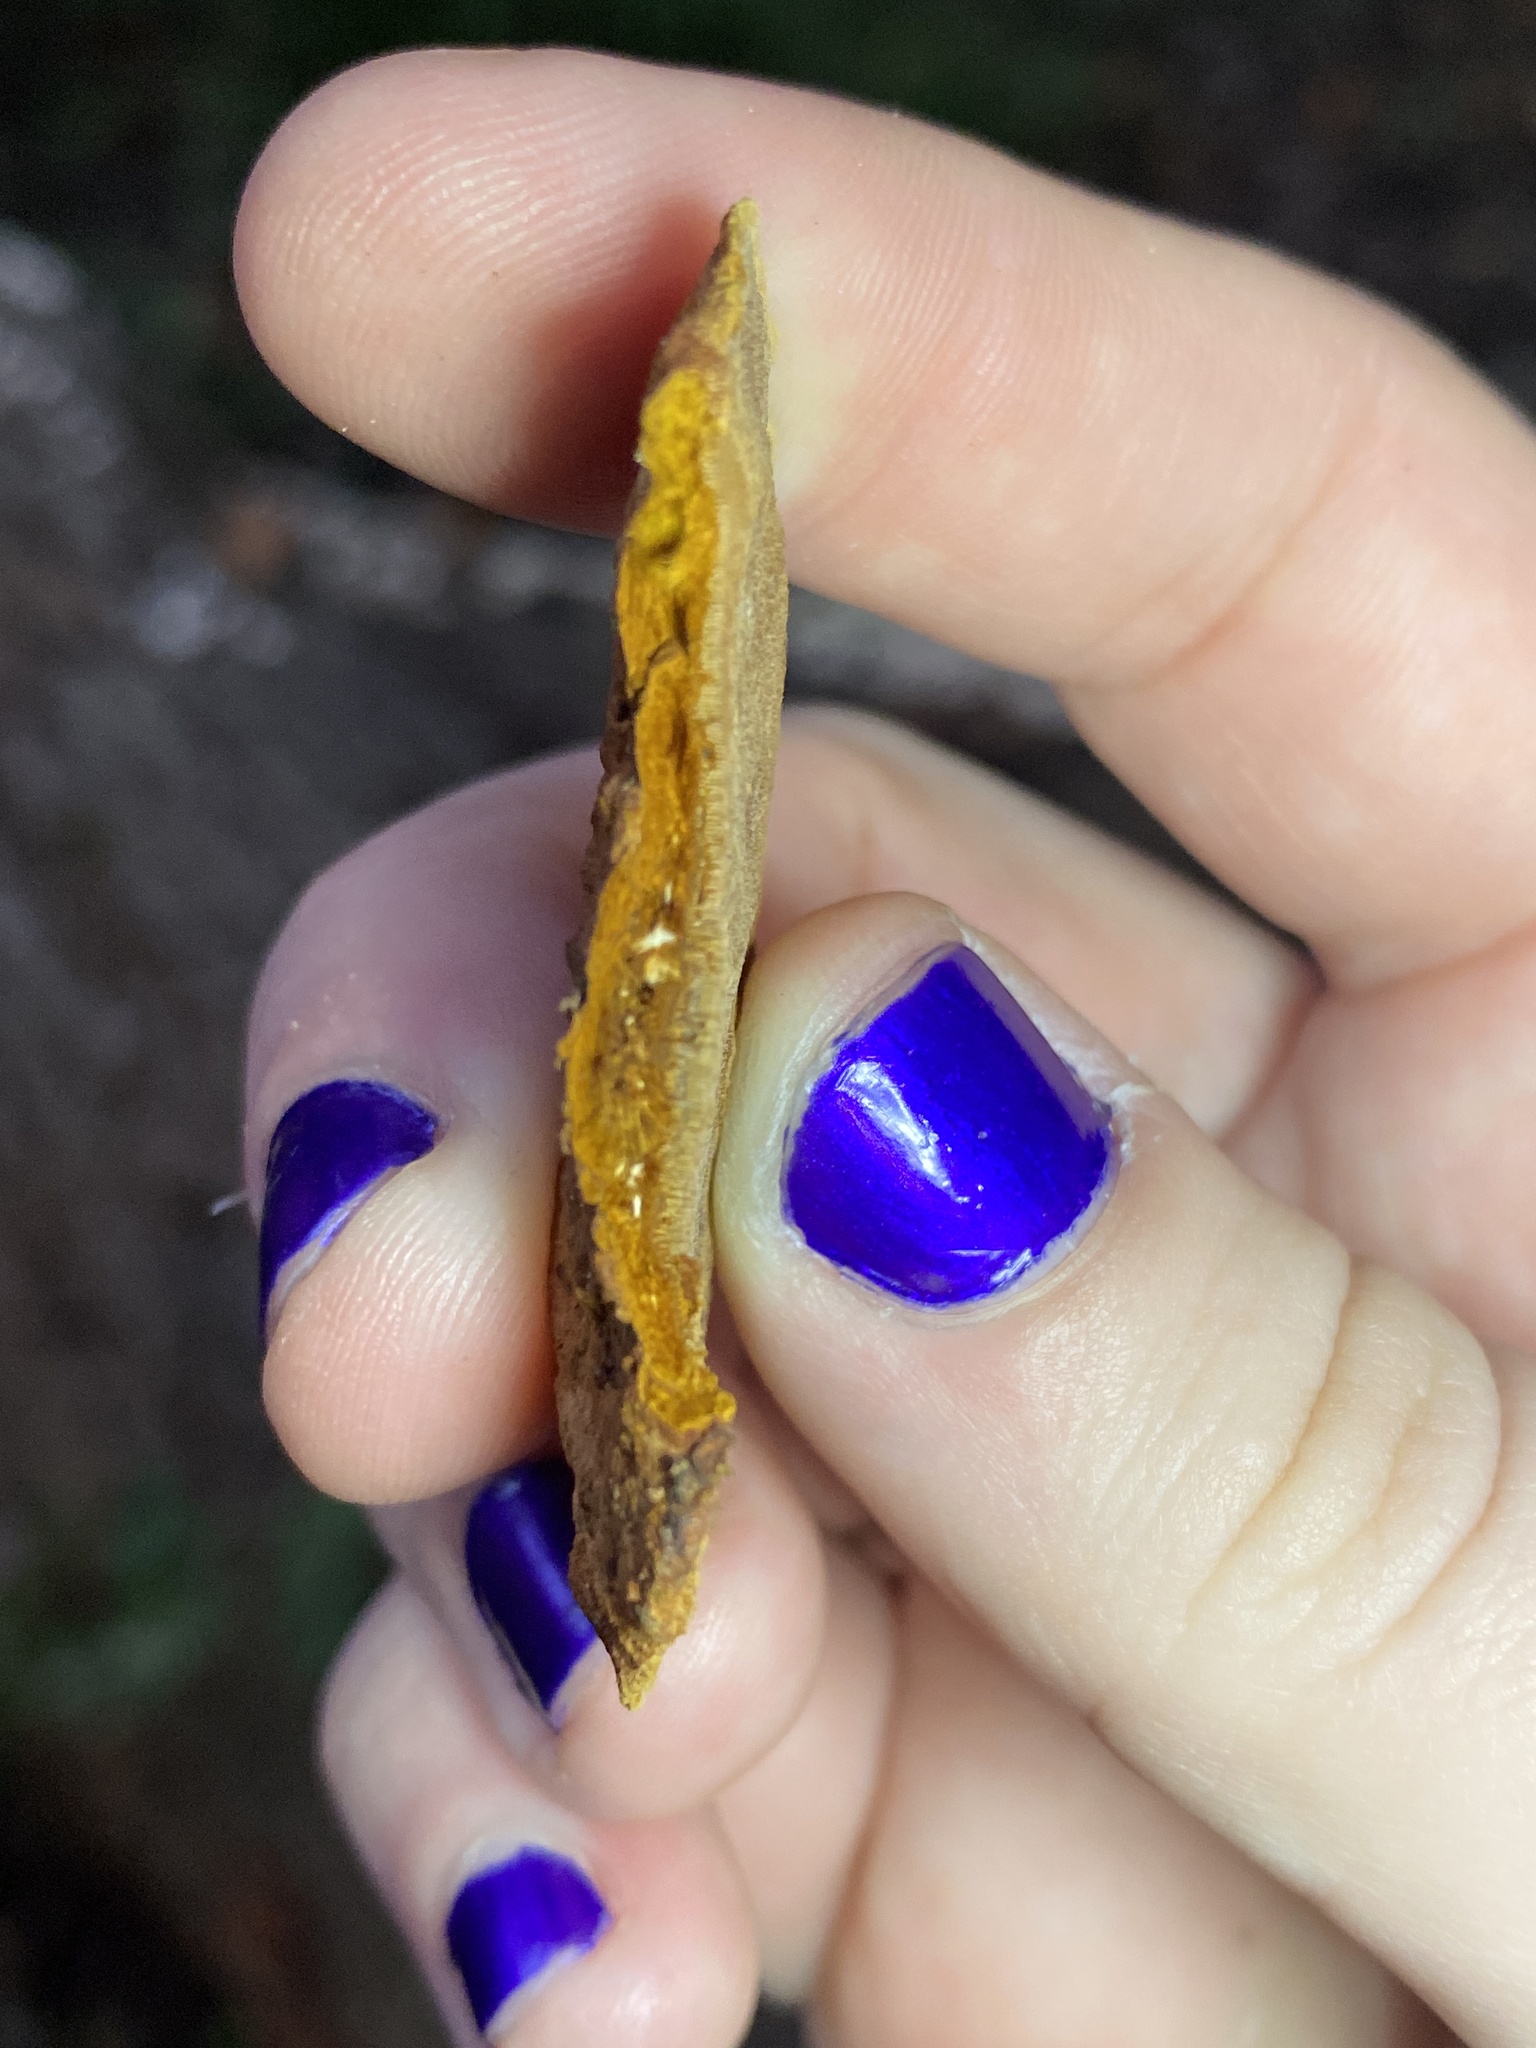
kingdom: Fungi
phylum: Basidiomycota
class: Agaricomycetes
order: Hymenochaetales
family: Hymenochaetaceae
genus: Phellinus
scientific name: Phellinus gilvus
